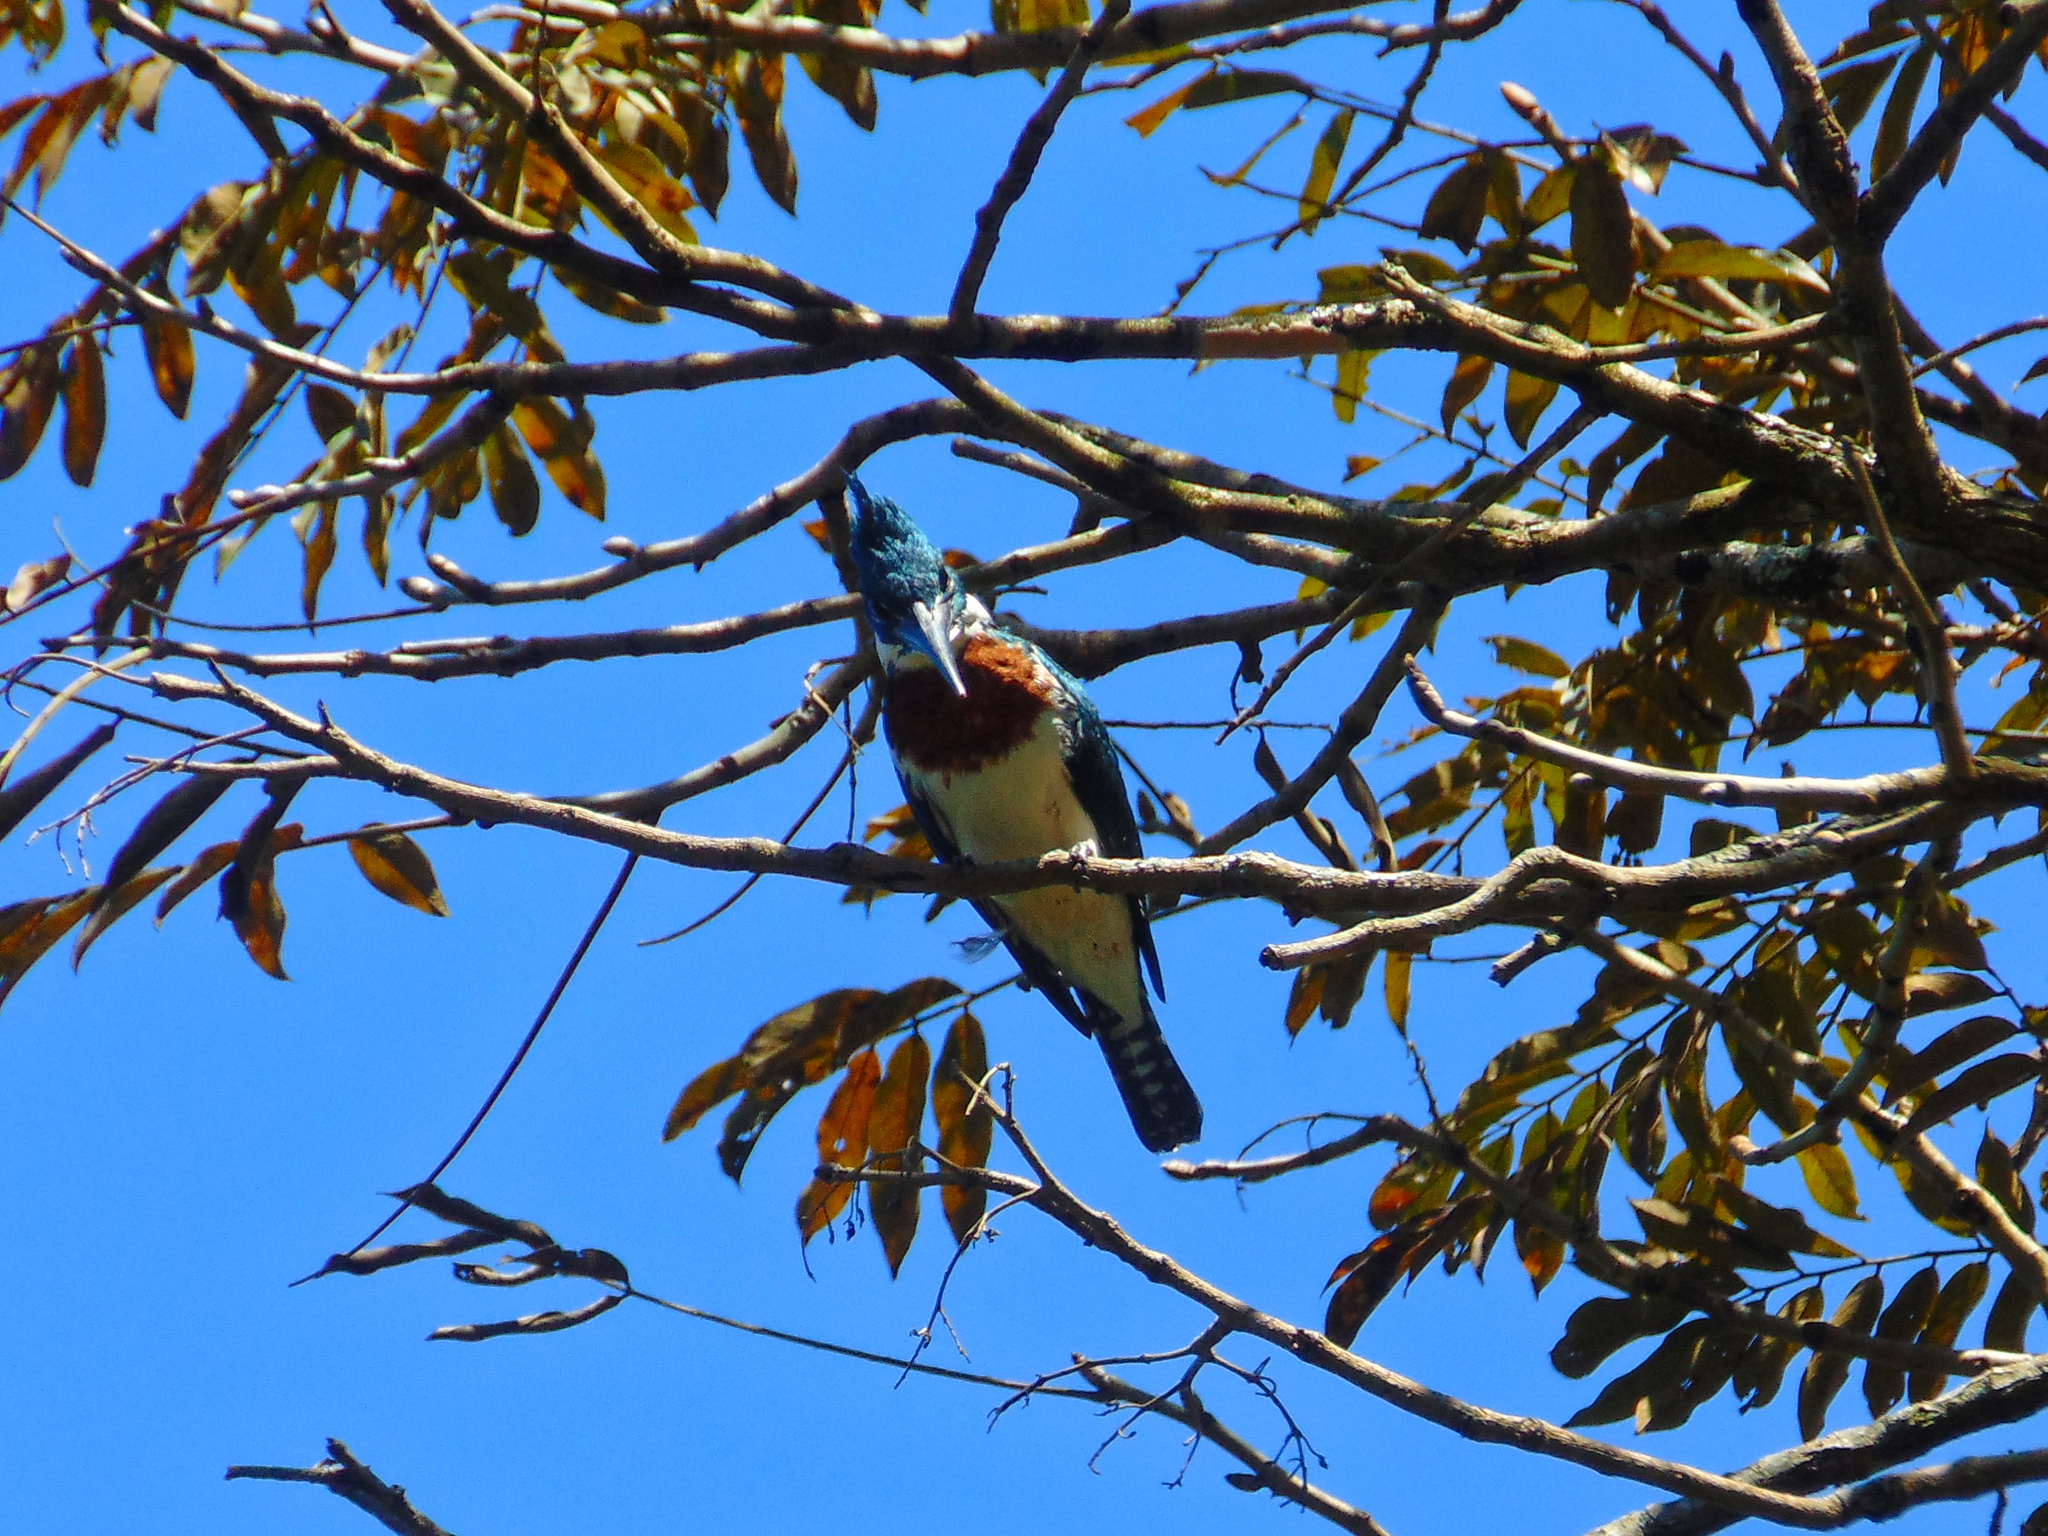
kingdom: Animalia
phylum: Chordata
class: Aves
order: Coraciiformes
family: Alcedinidae
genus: Chloroceryle
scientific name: Chloroceryle amazona
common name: Amazon kingfisher
